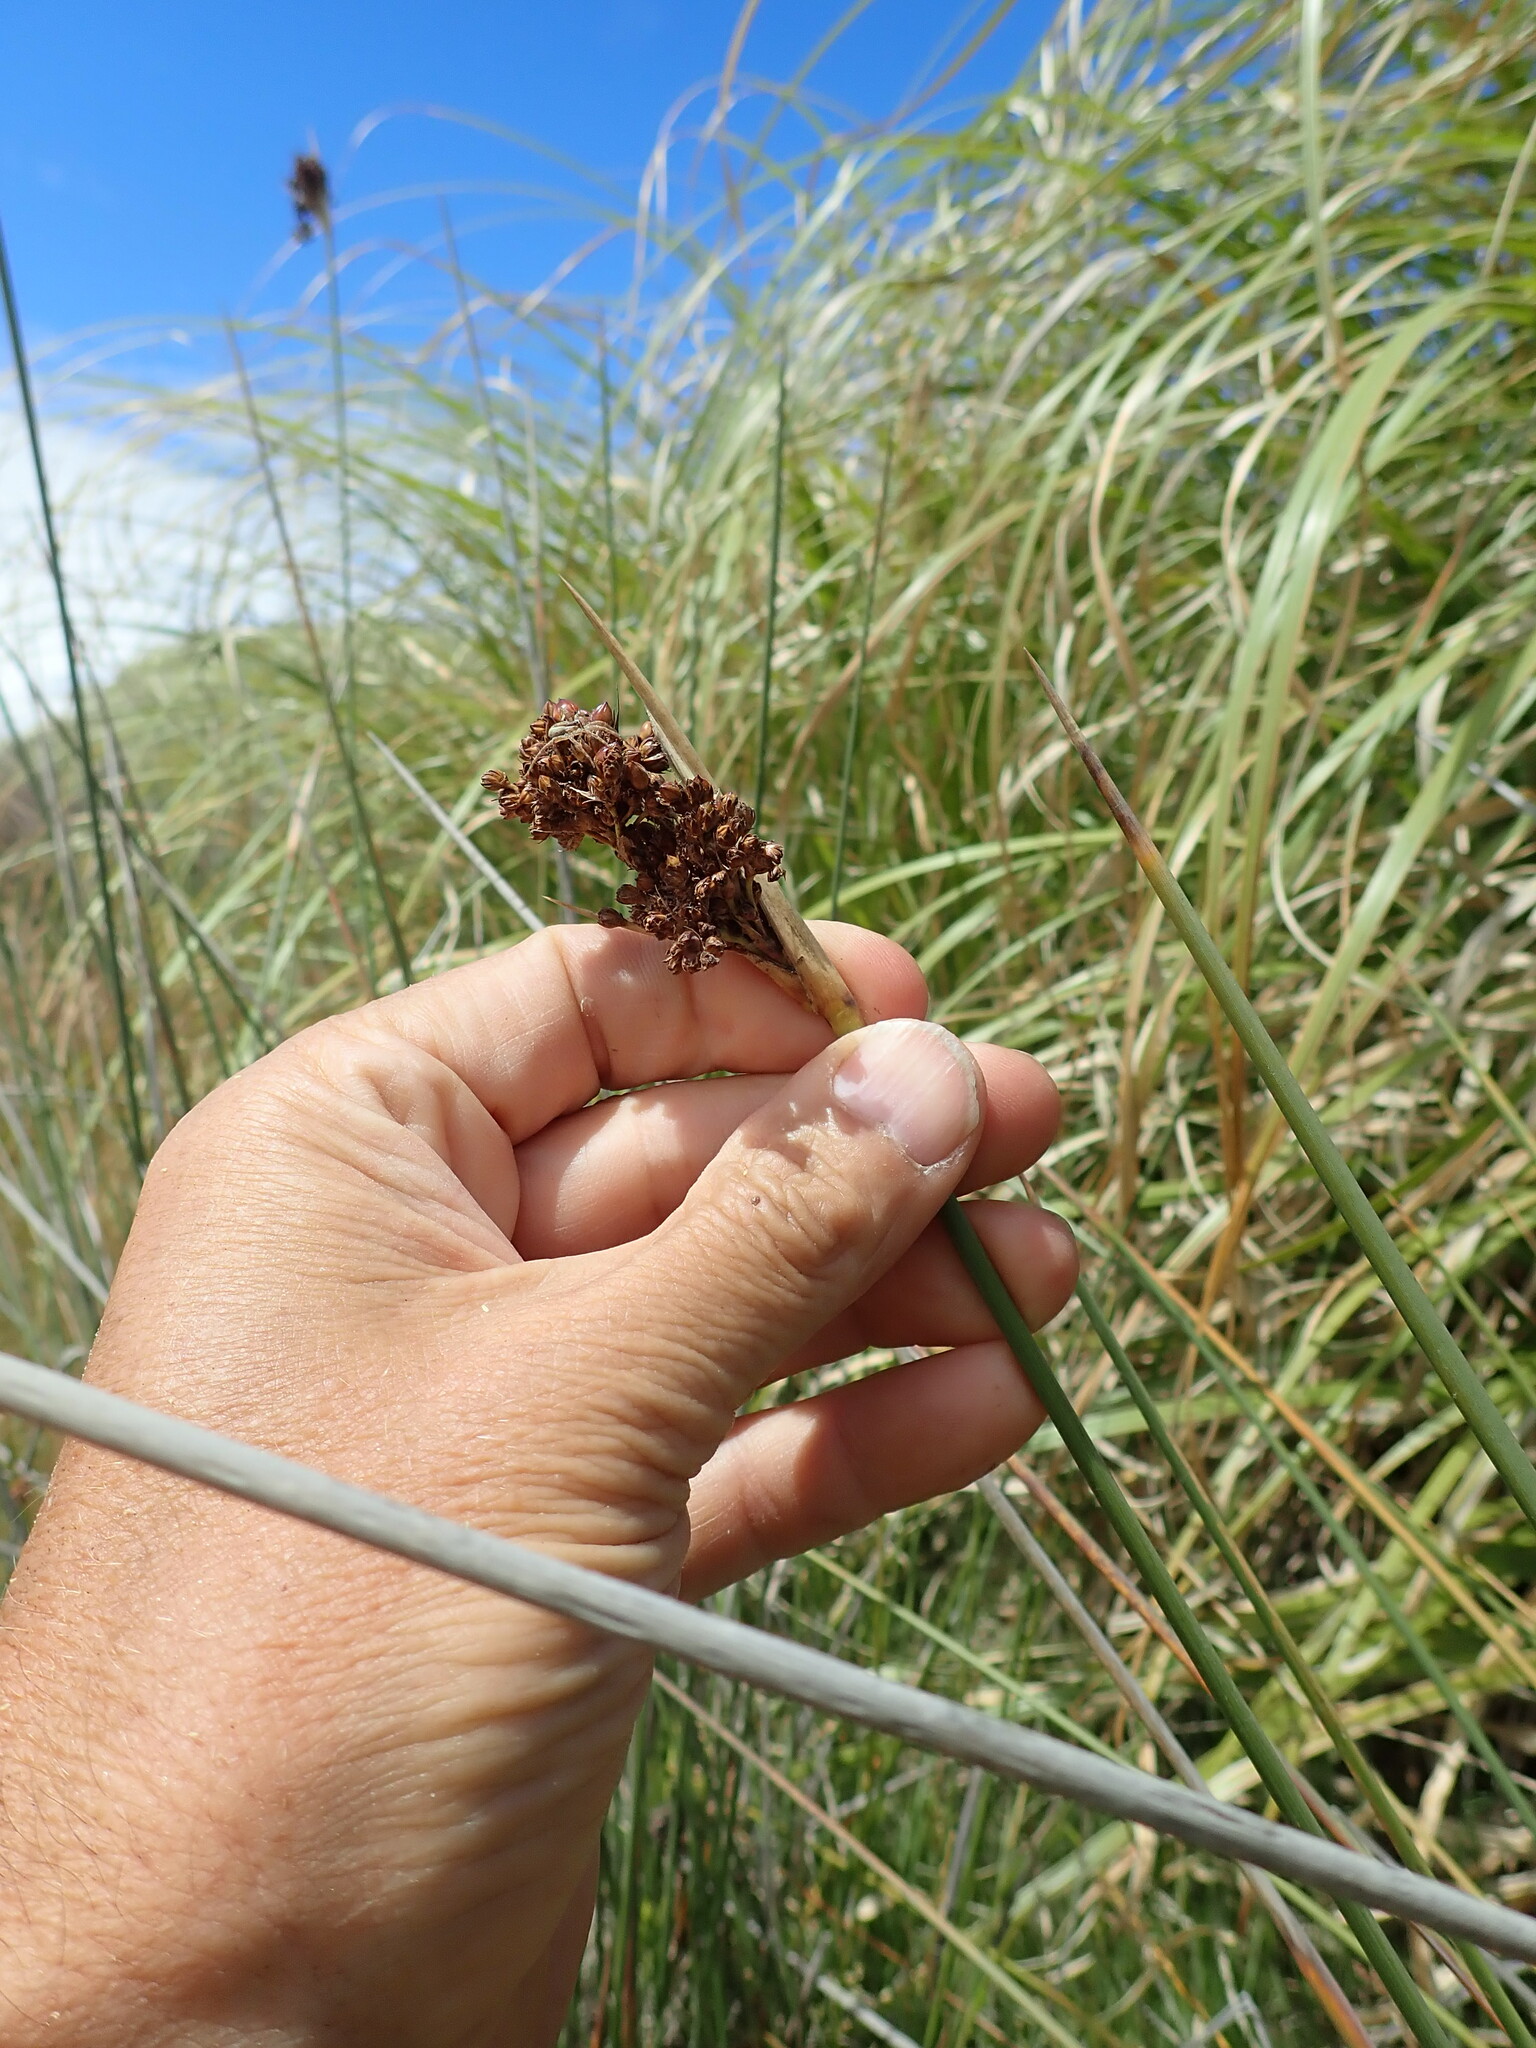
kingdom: Plantae
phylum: Tracheophyta
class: Liliopsida
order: Poales
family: Juncaceae
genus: Juncus
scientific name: Juncus acutus
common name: Sharp rush
